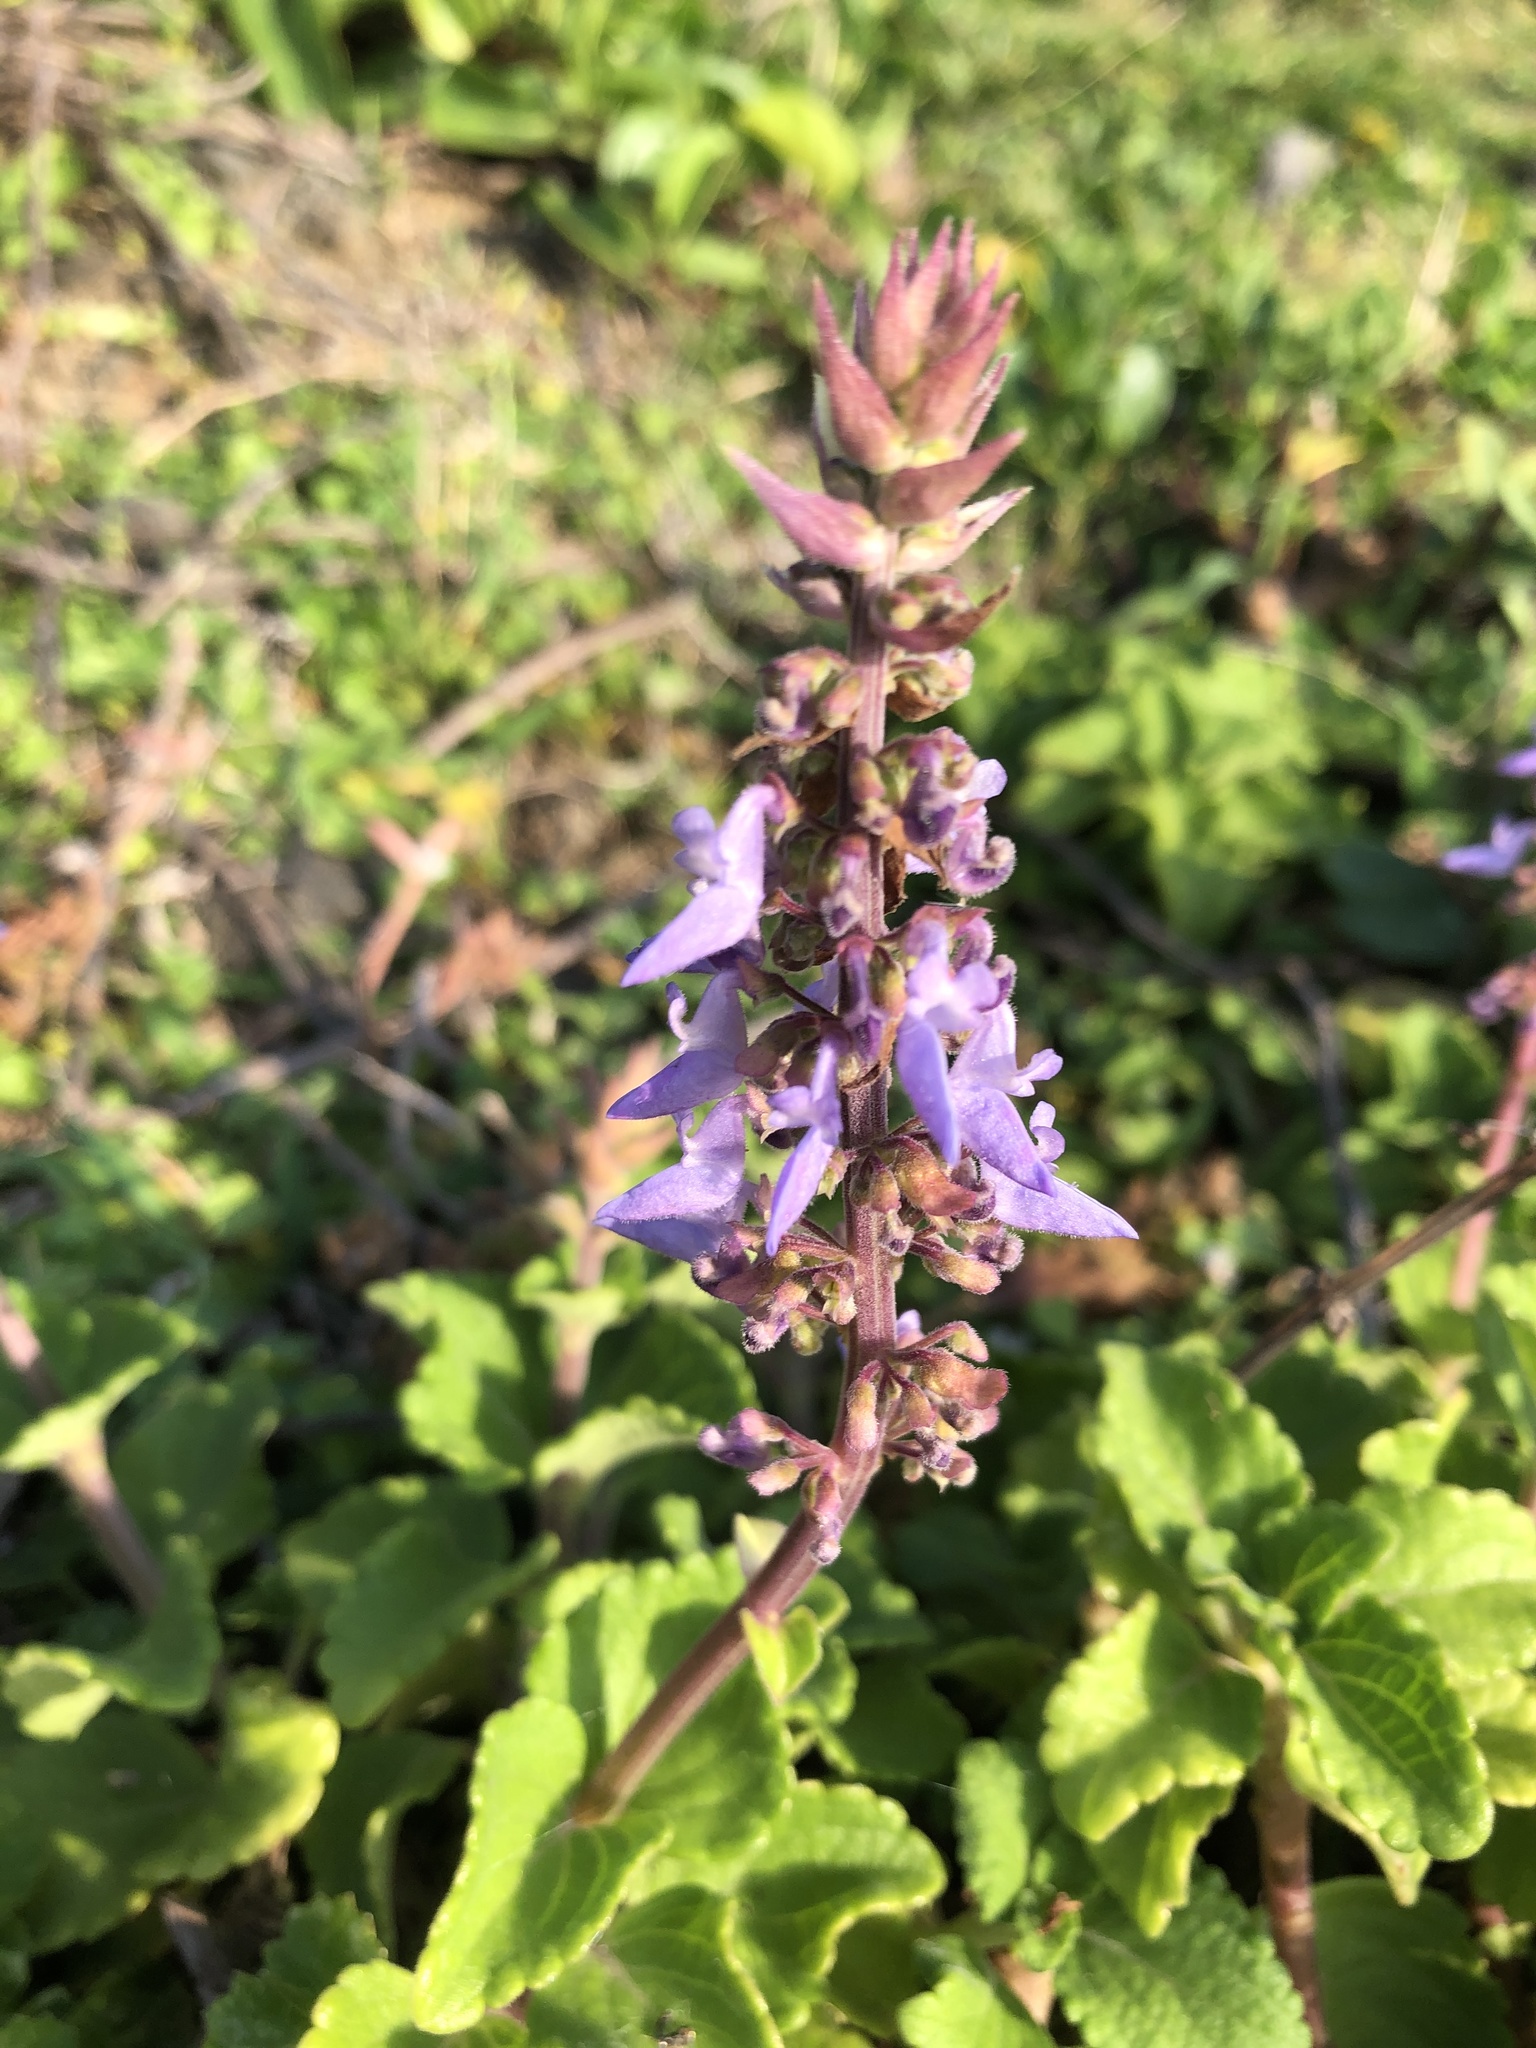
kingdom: Plantae
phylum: Tracheophyta
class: Magnoliopsida
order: Lamiales
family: Lamiaceae
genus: Coleus
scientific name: Coleus scutellarioides
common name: Coleus
